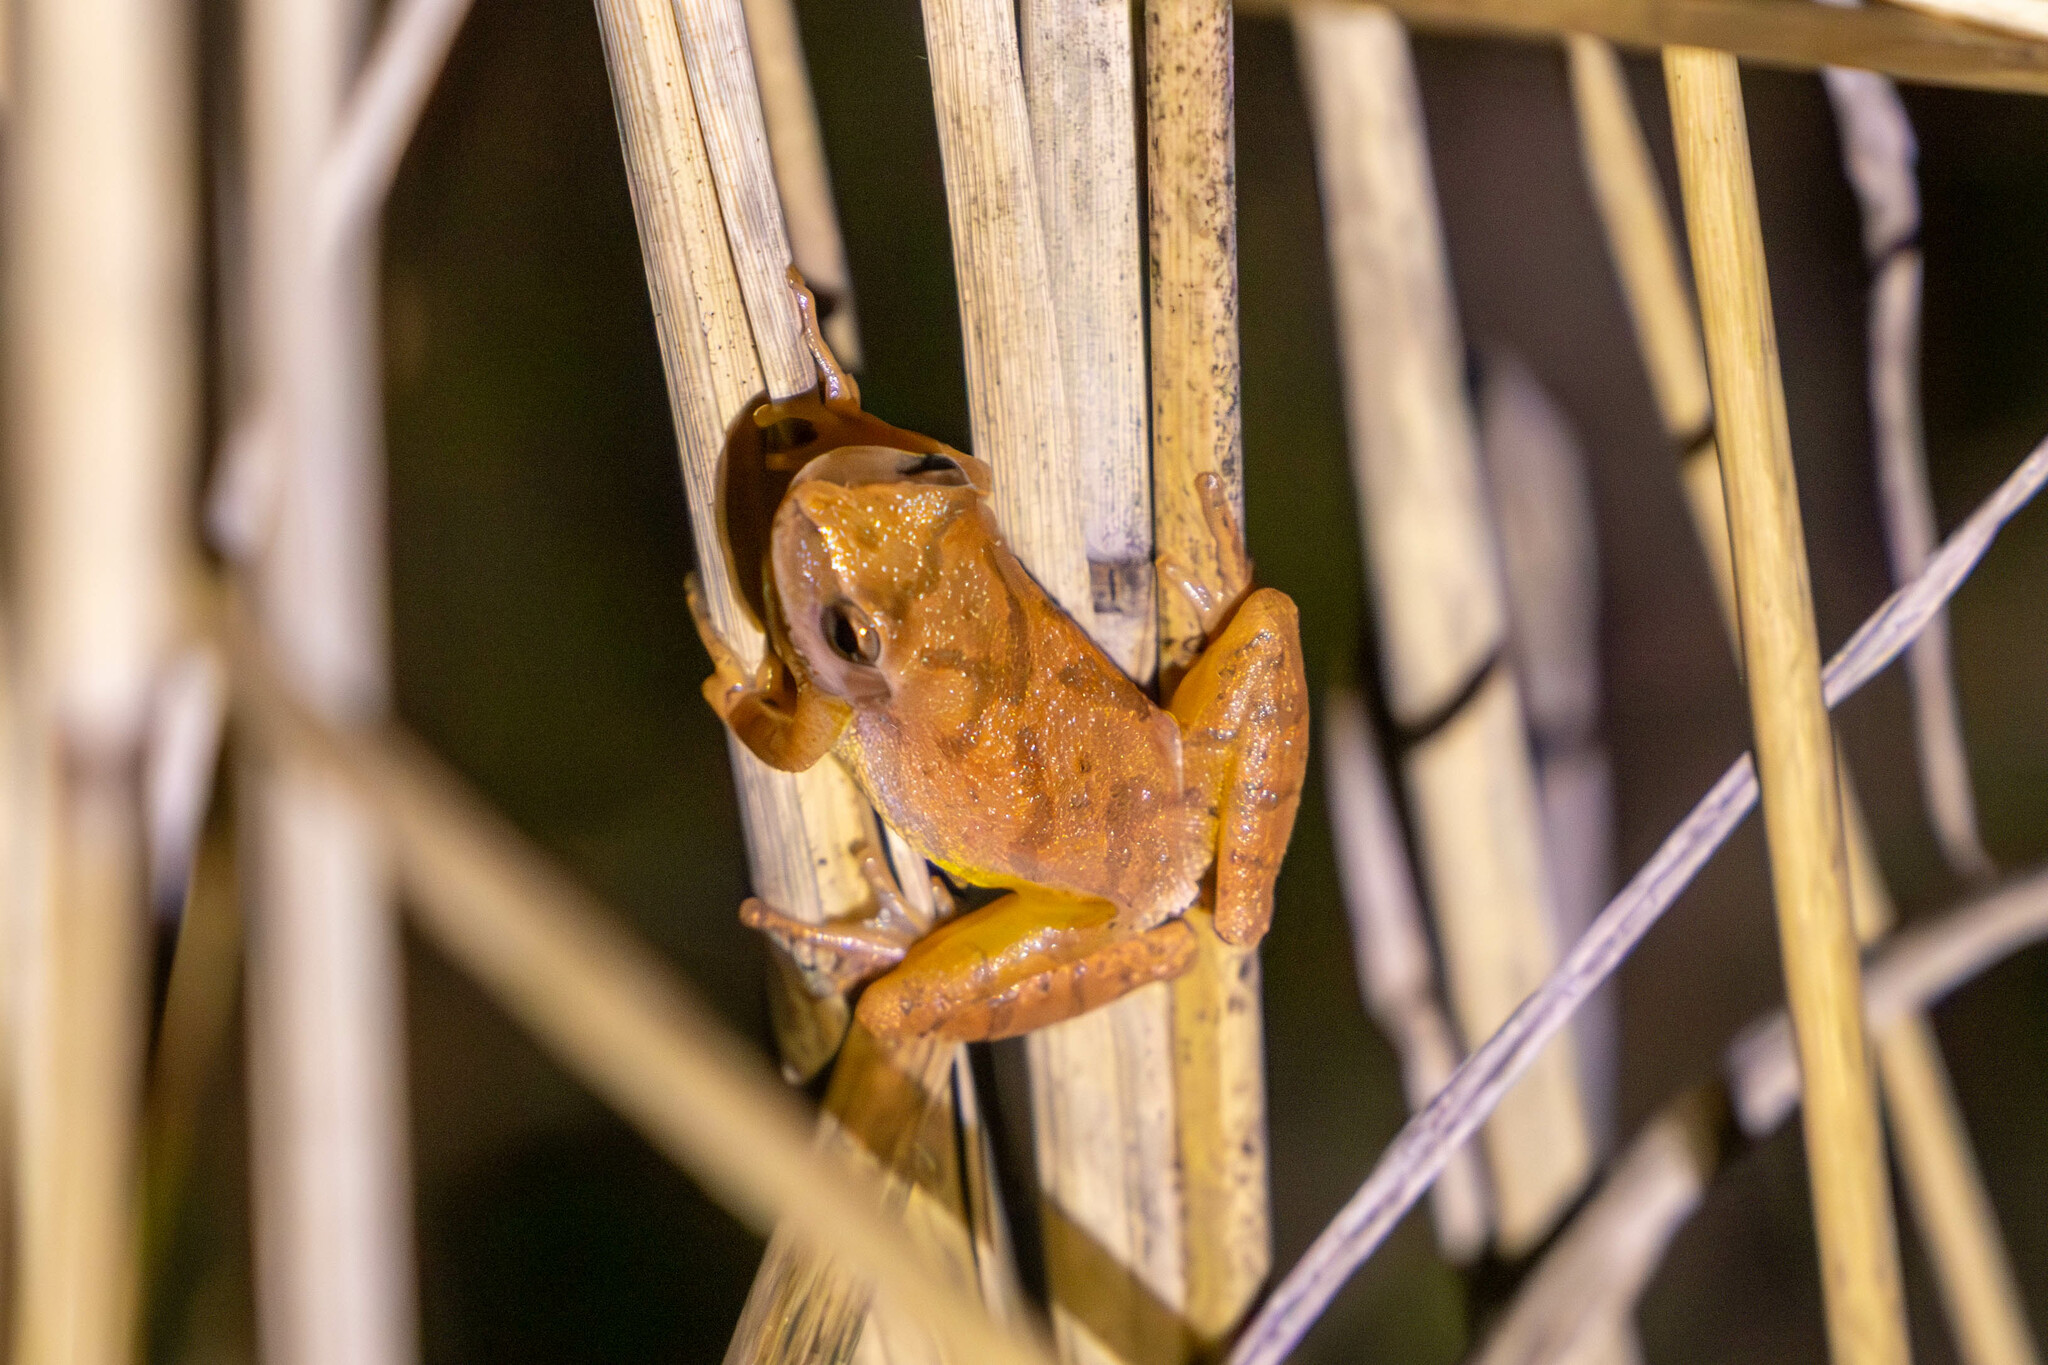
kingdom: Animalia
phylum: Chordata
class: Amphibia
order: Anura
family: Hylidae
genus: Pseudacris
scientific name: Pseudacris crucifer
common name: Spring peeper
